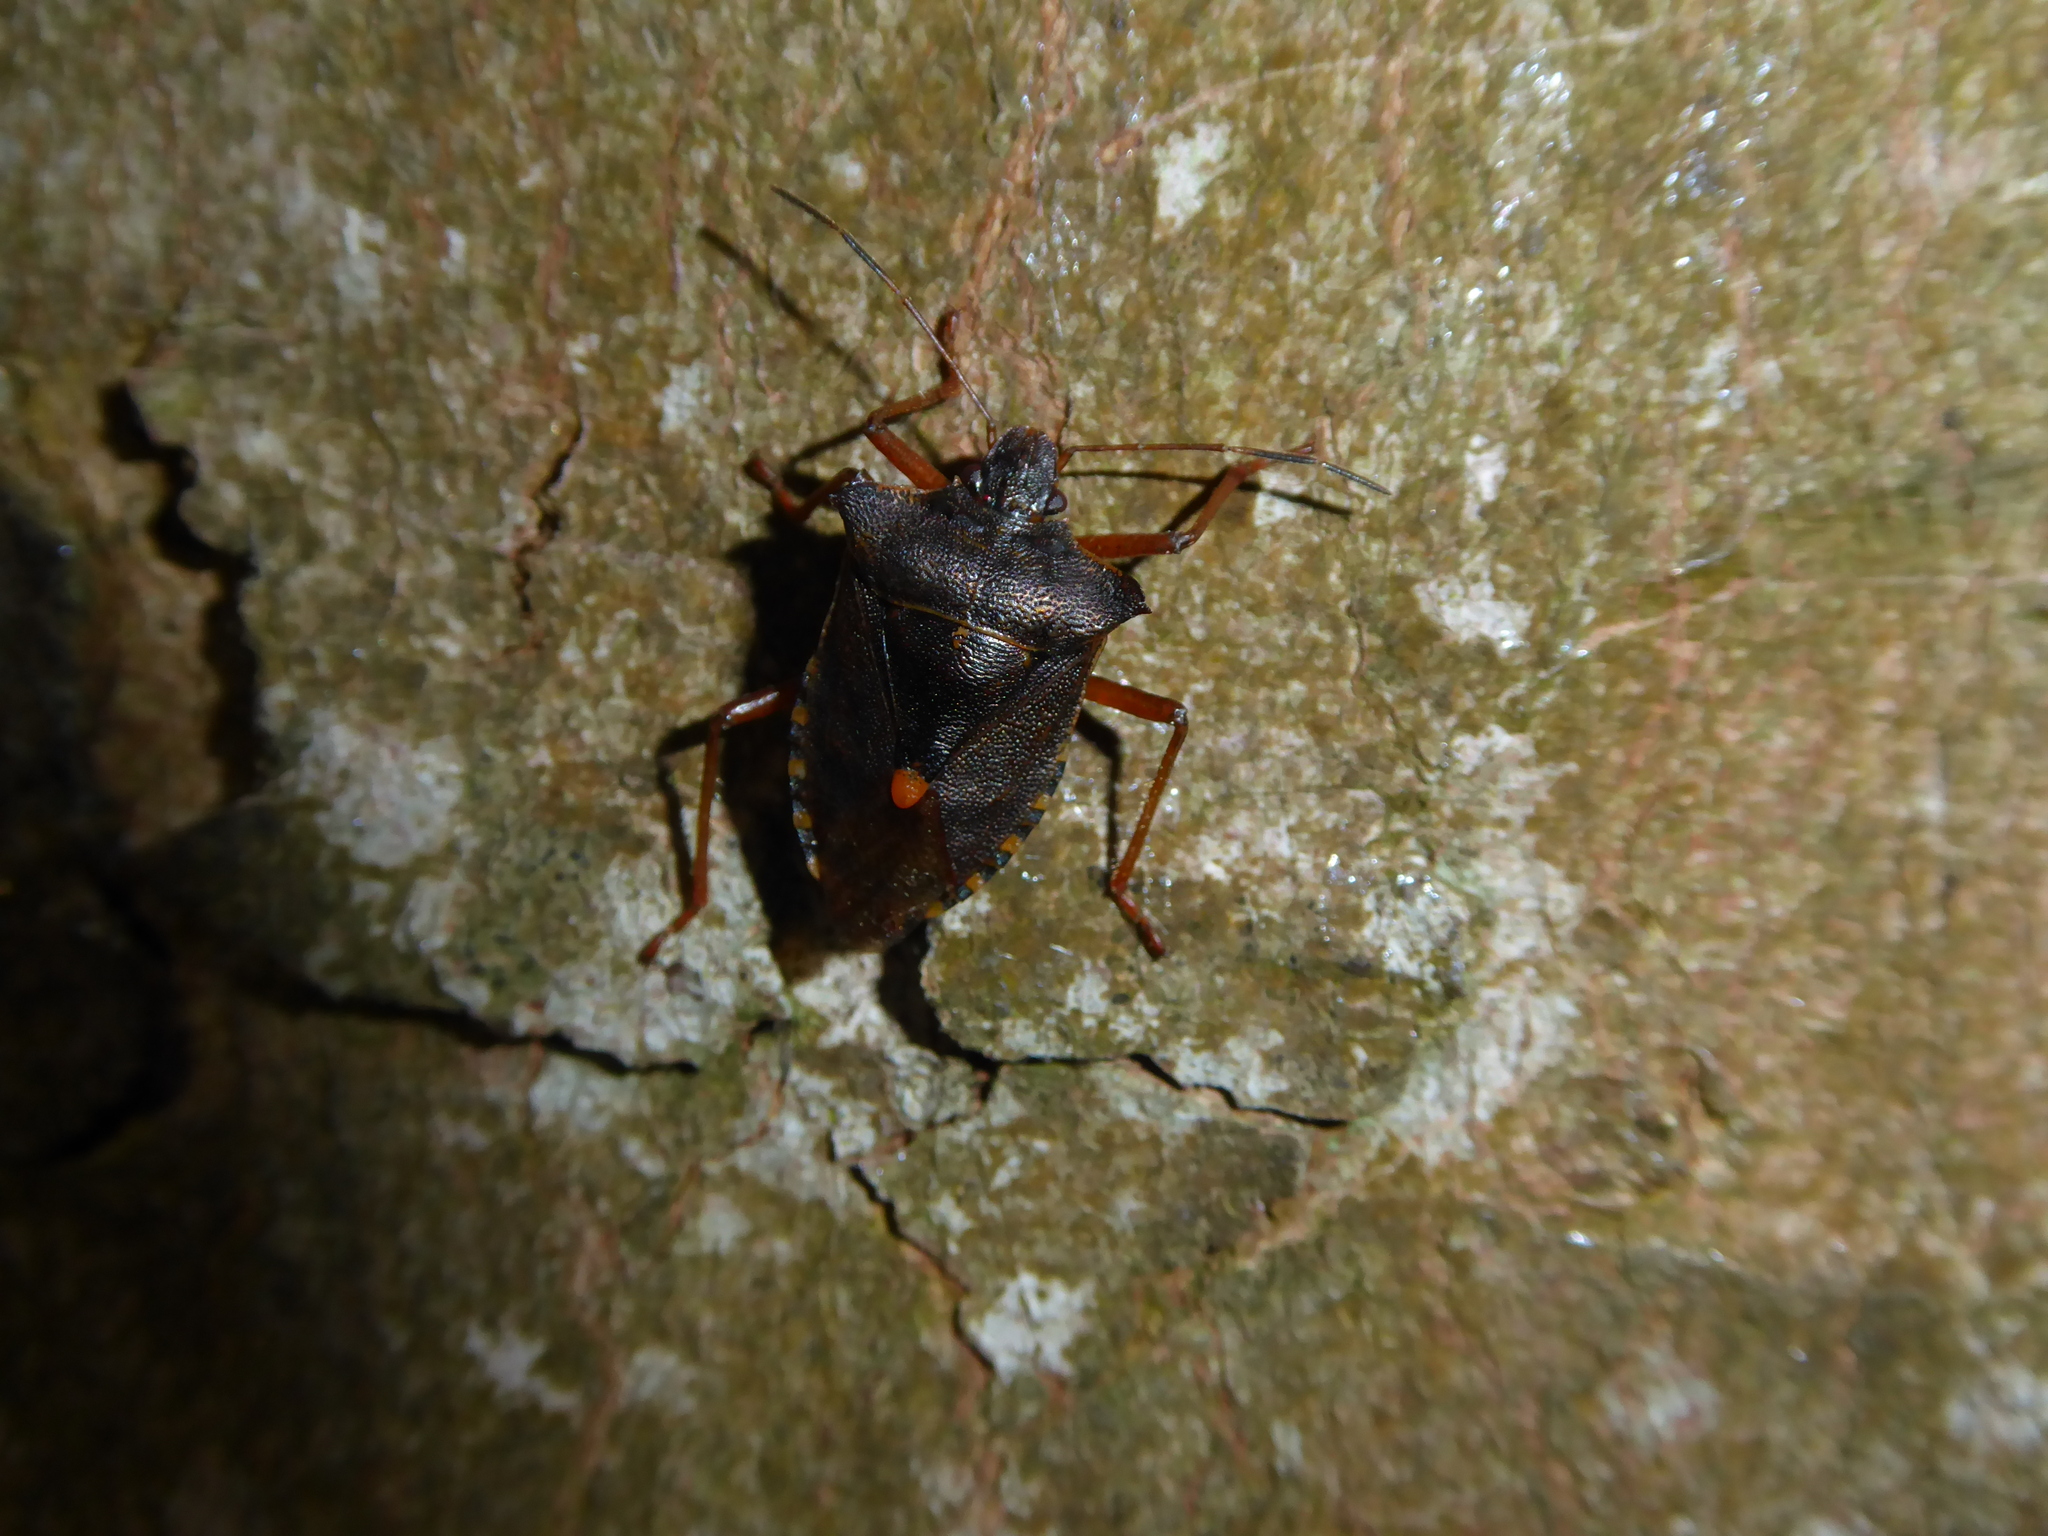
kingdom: Animalia
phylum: Arthropoda
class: Insecta
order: Hemiptera
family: Pentatomidae
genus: Pentatoma
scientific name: Pentatoma rufipes
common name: Forest bug
